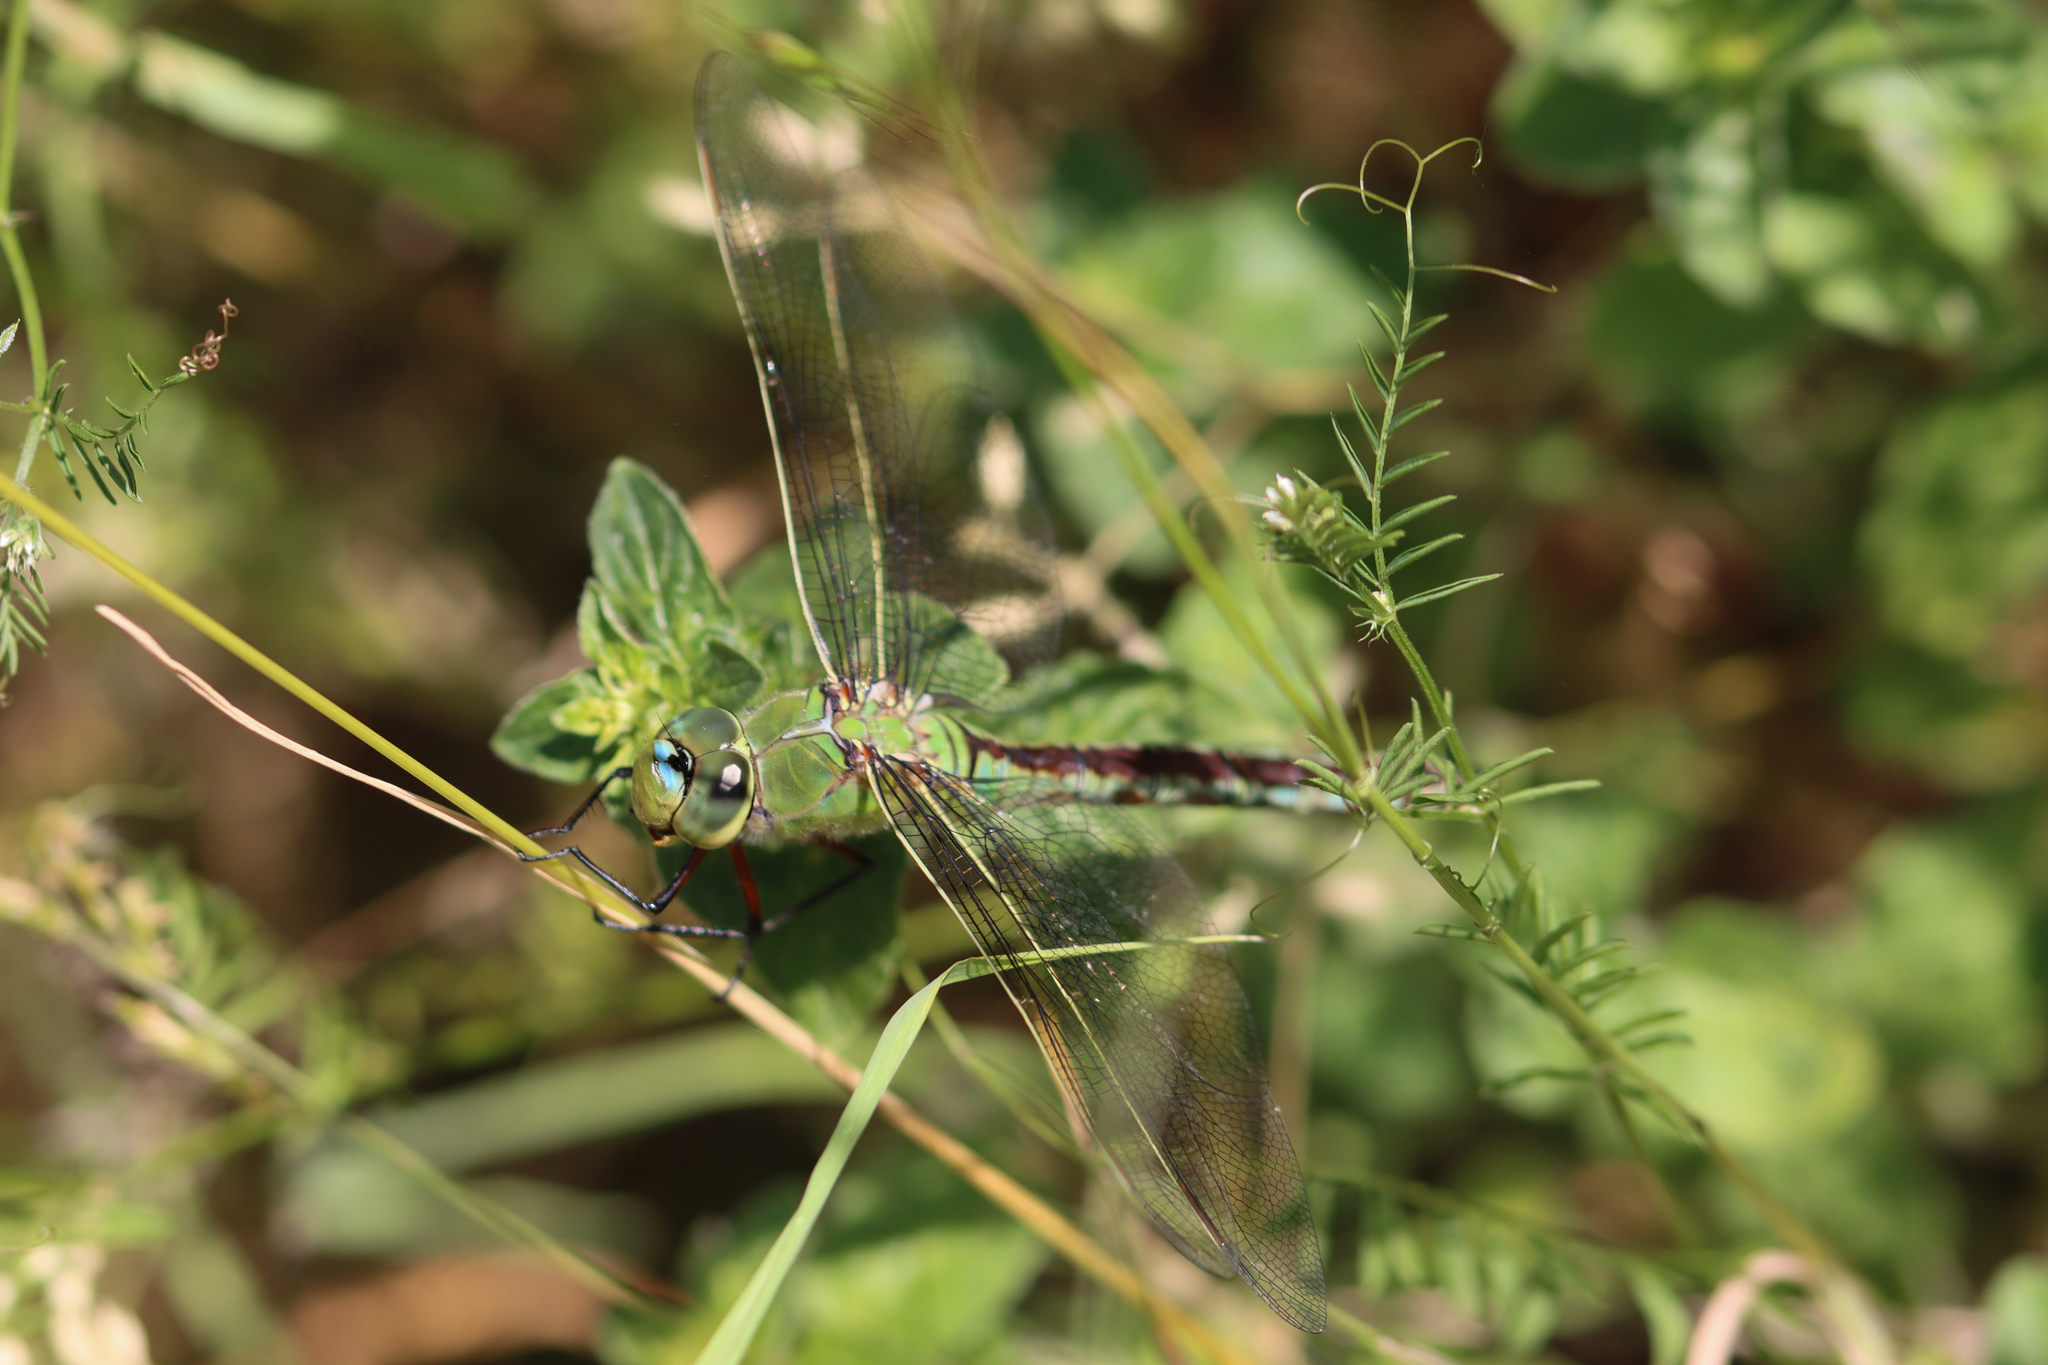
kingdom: Animalia
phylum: Arthropoda
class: Insecta
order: Odonata
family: Aeshnidae
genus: Anax
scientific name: Anax imperator
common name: Emperor dragonfly
